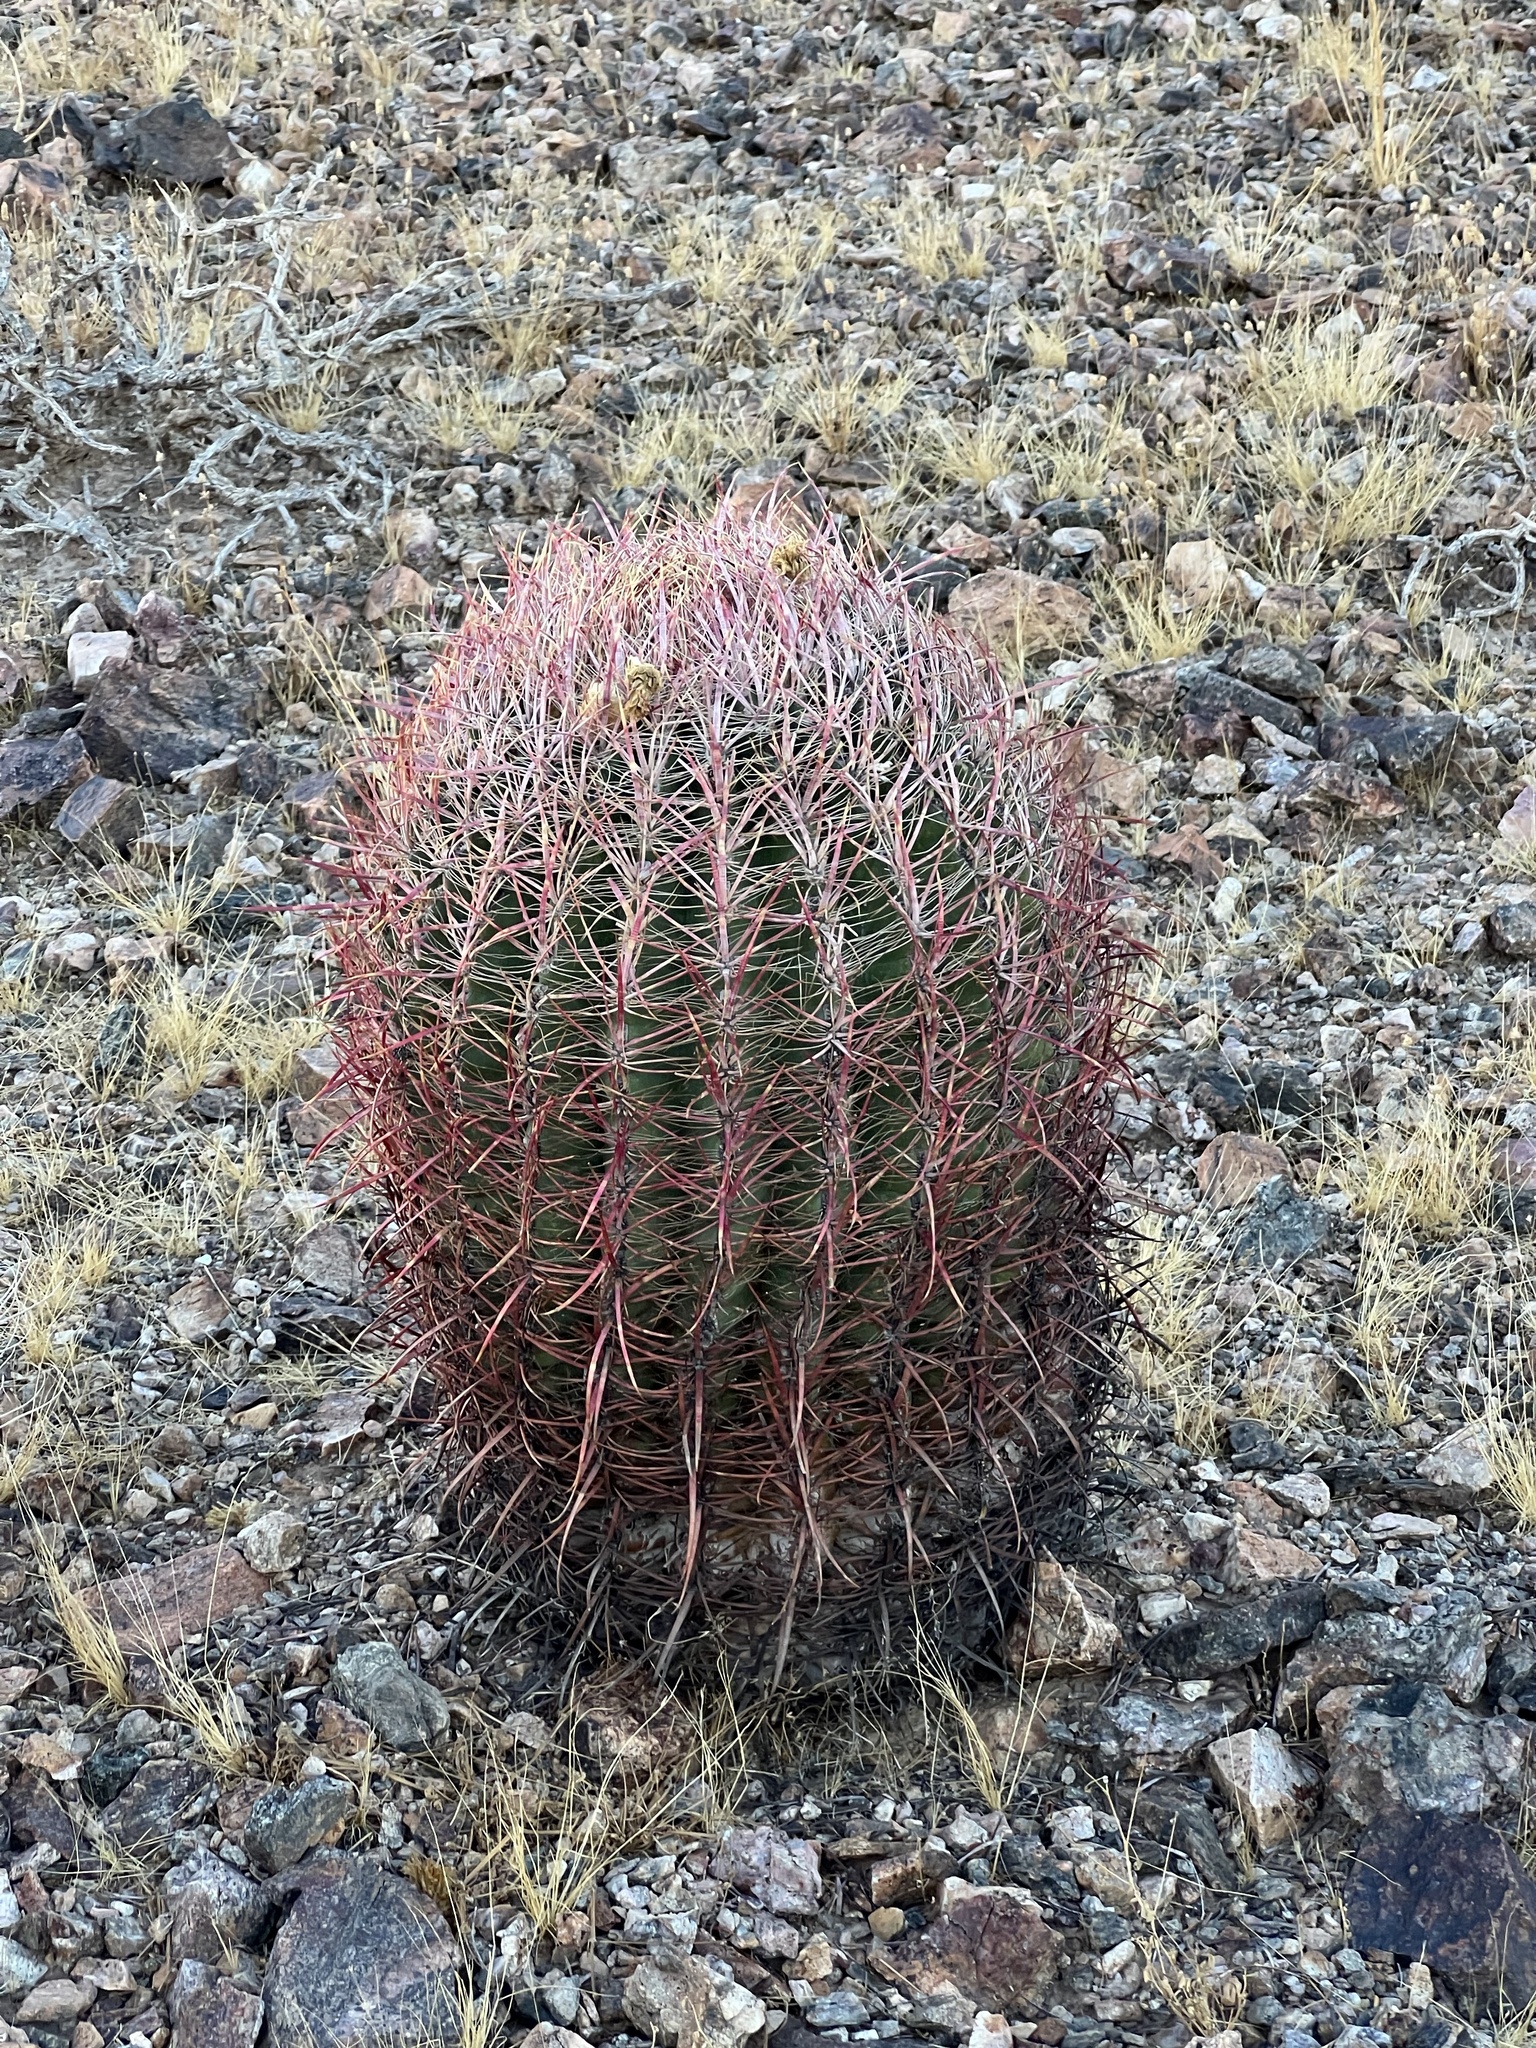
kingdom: Plantae
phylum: Tracheophyta
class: Magnoliopsida
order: Caryophyllales
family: Cactaceae
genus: Ferocactus
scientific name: Ferocactus cylindraceus
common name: California barrel cactus
